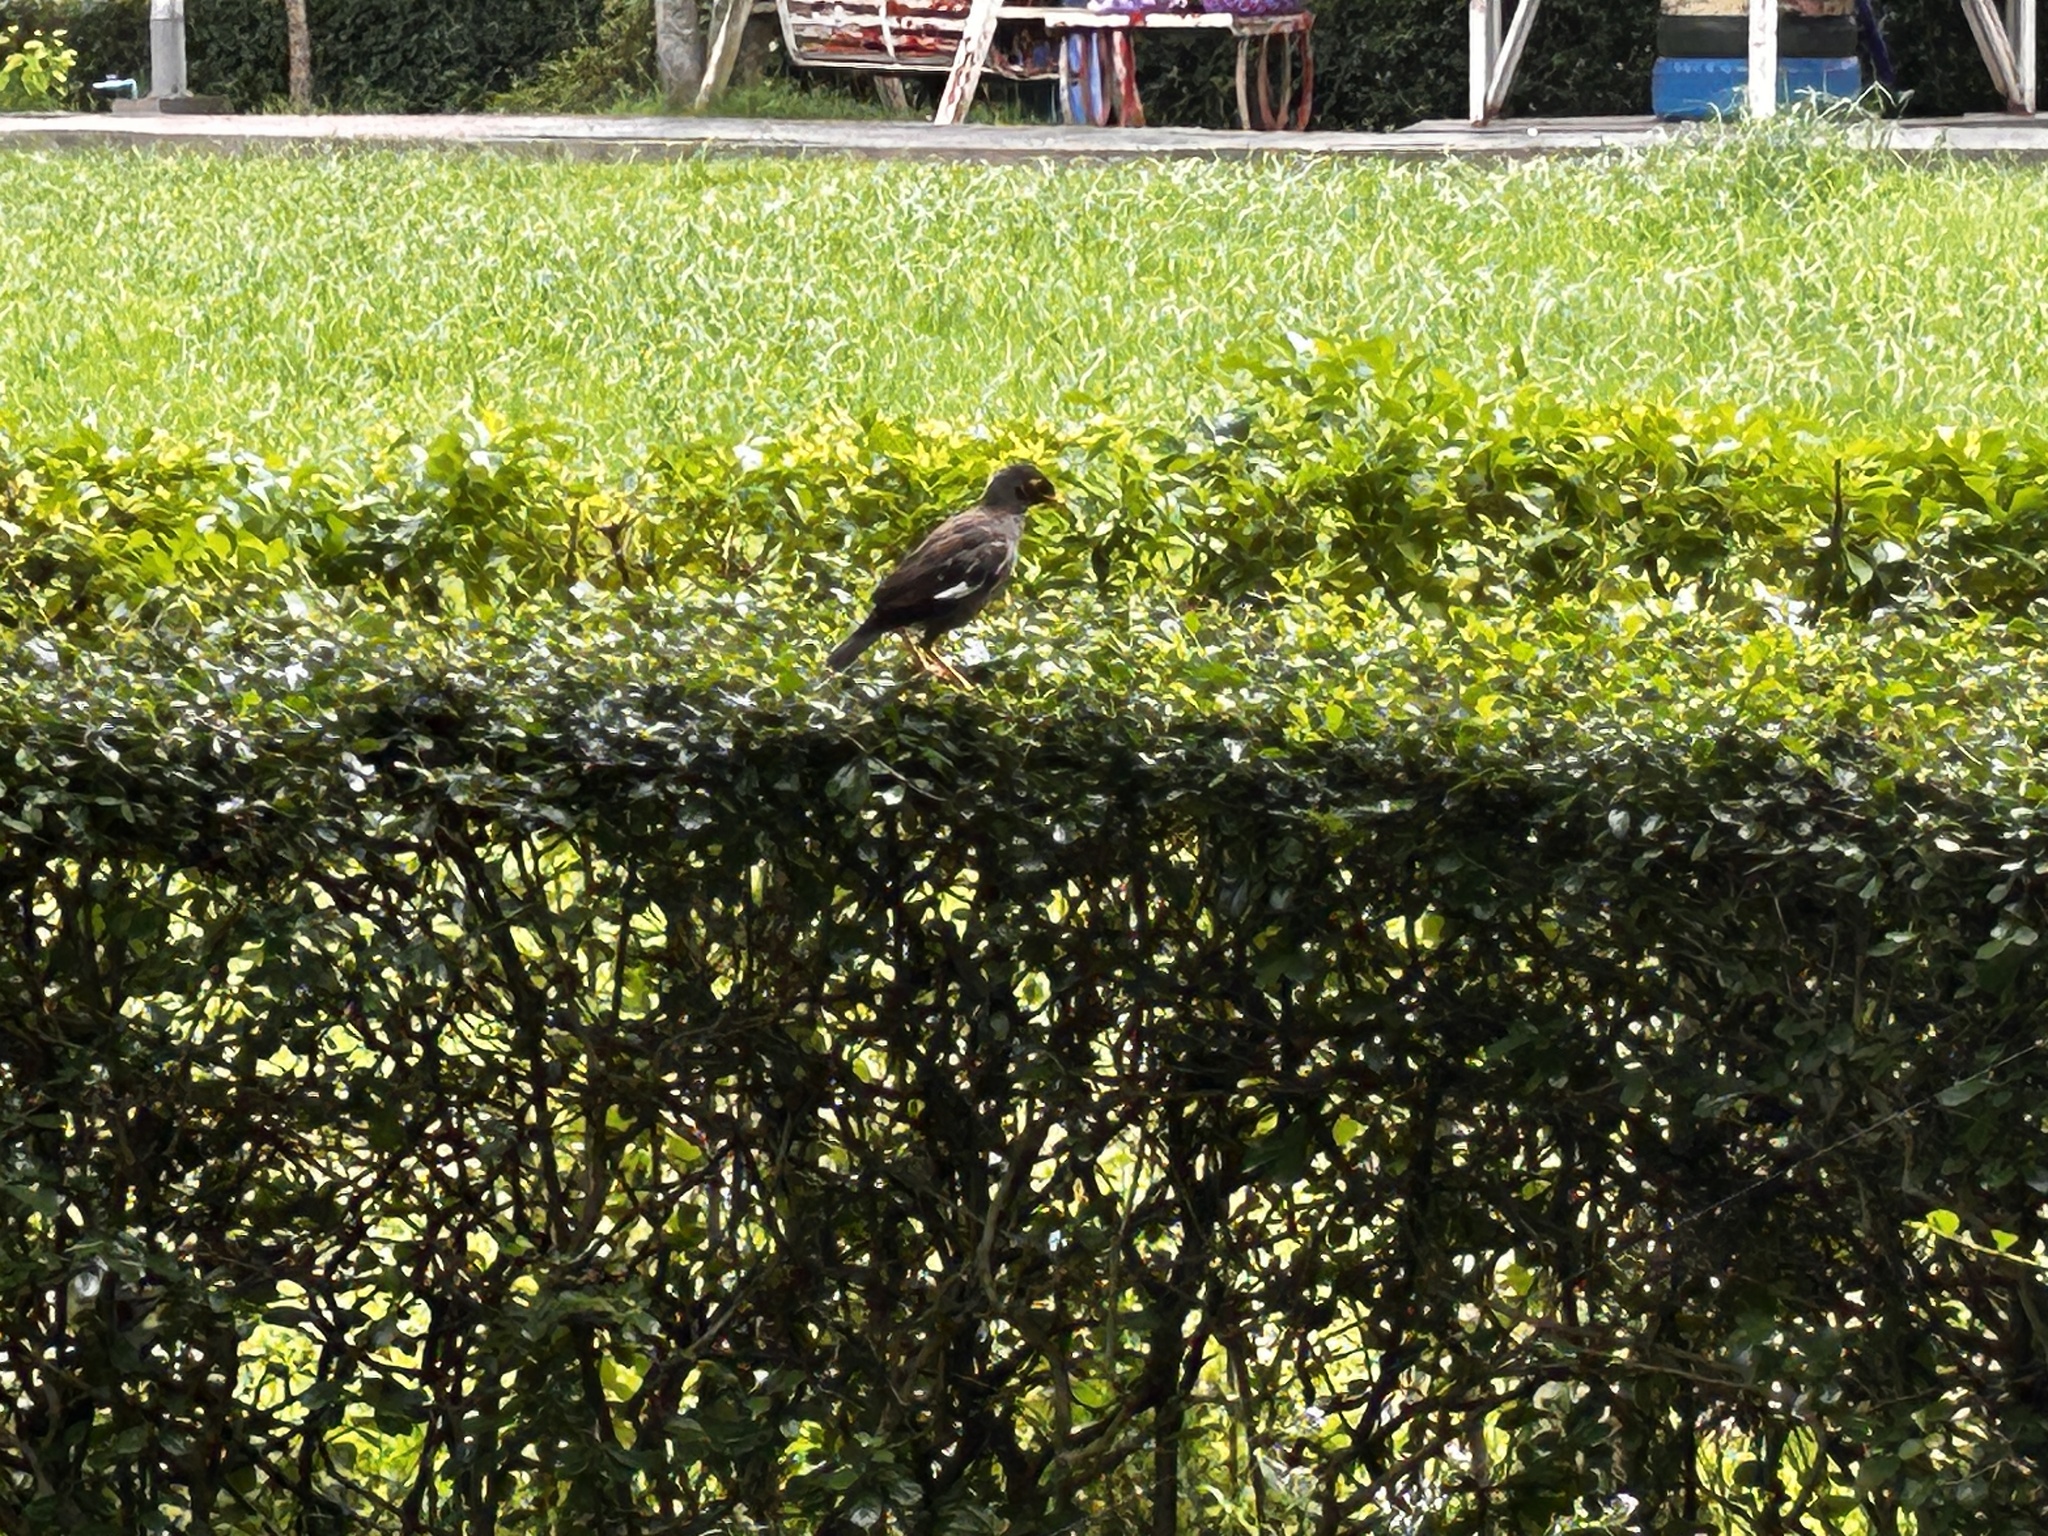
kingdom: Animalia
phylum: Chordata
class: Aves
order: Passeriformes
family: Sturnidae
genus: Acridotheres
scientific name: Acridotheres tristis
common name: Common myna
